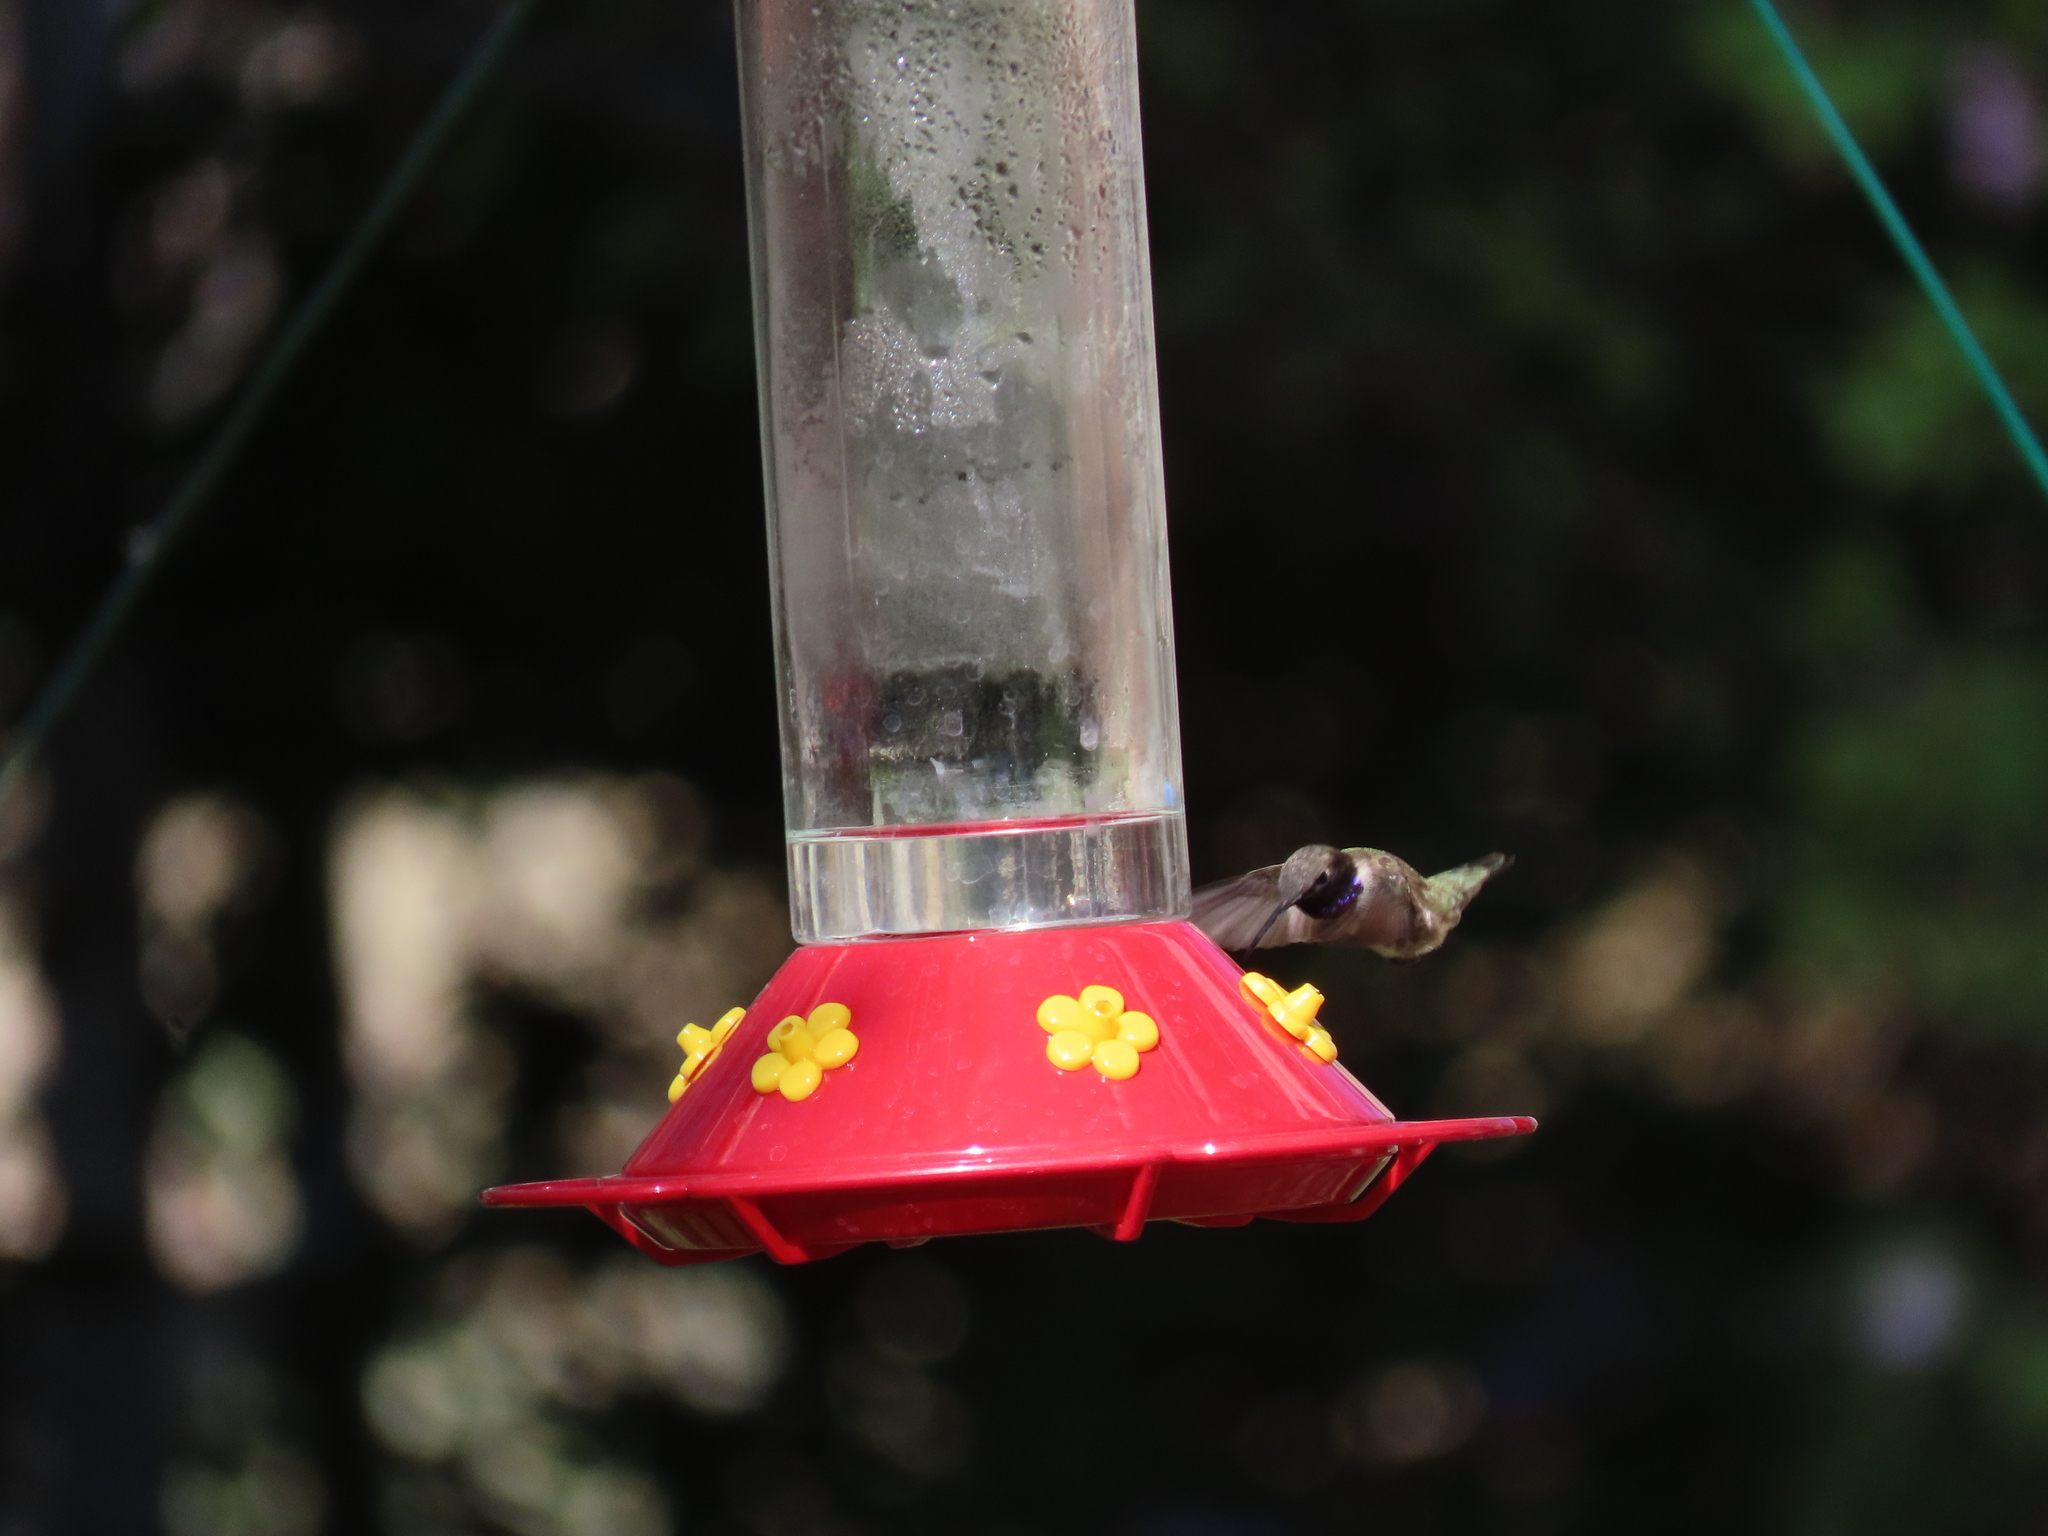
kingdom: Animalia
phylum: Chordata
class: Aves
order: Apodiformes
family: Trochilidae
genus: Archilochus
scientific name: Archilochus alexandri
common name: Black-chinned hummingbird
